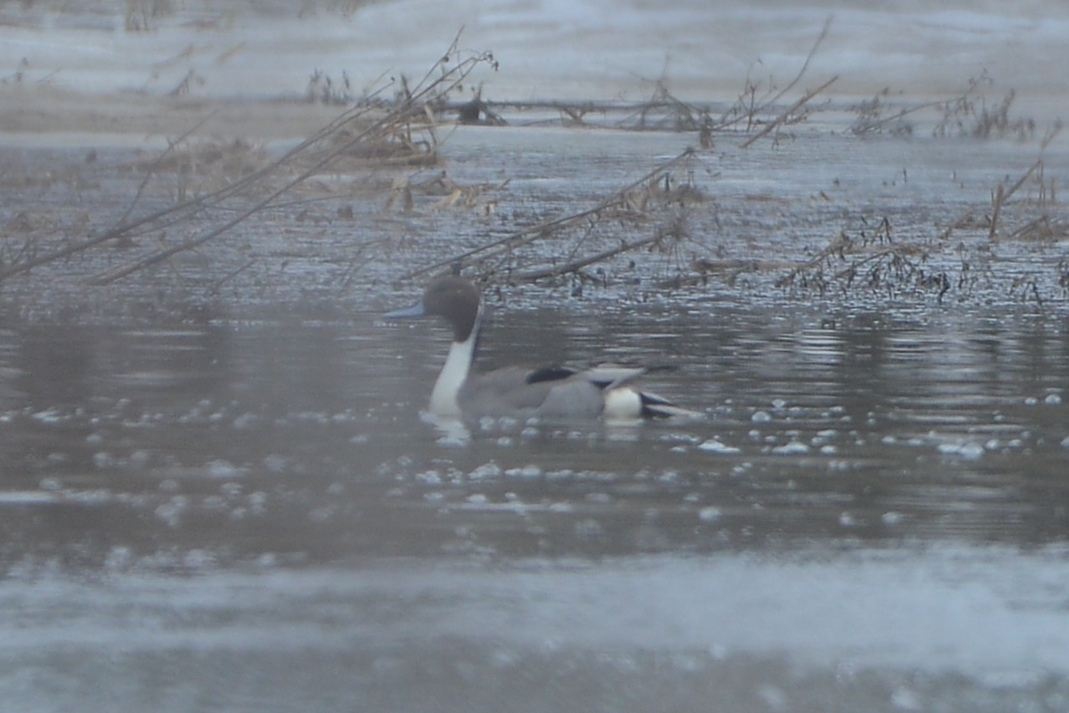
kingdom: Animalia
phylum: Chordata
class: Aves
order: Anseriformes
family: Anatidae
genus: Anas
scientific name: Anas acuta
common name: Northern pintail
